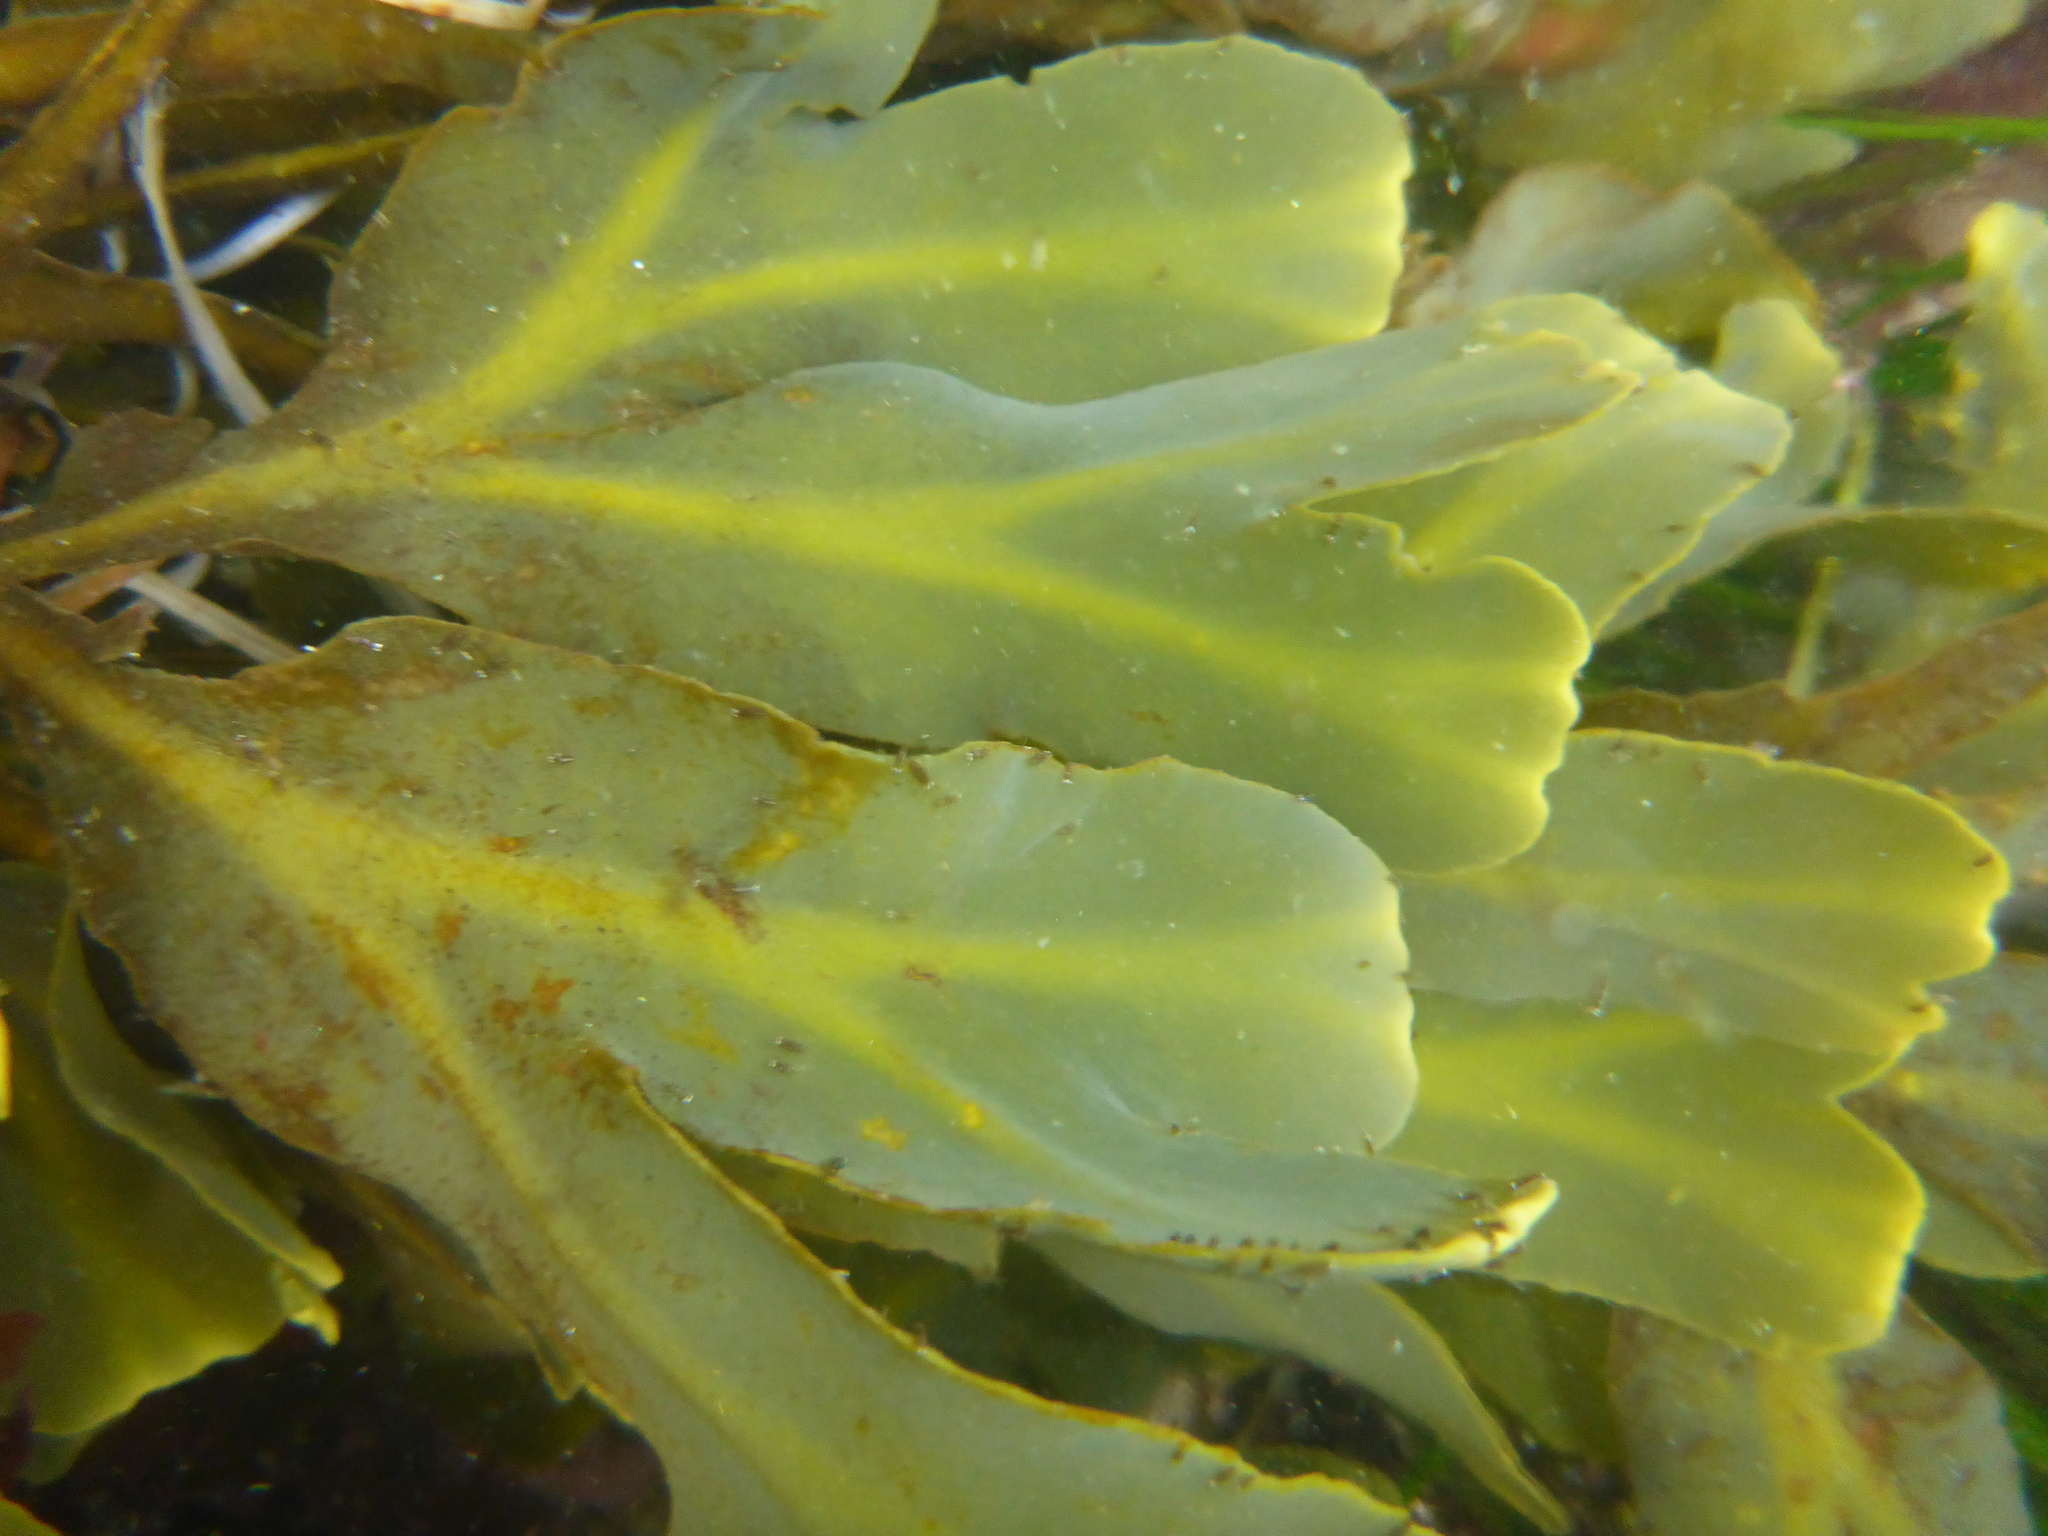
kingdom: Chromista
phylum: Ochrophyta
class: Phaeophyceae
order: Fucales
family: Fucaceae
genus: Fucus
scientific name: Fucus distichus
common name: Rockweed
